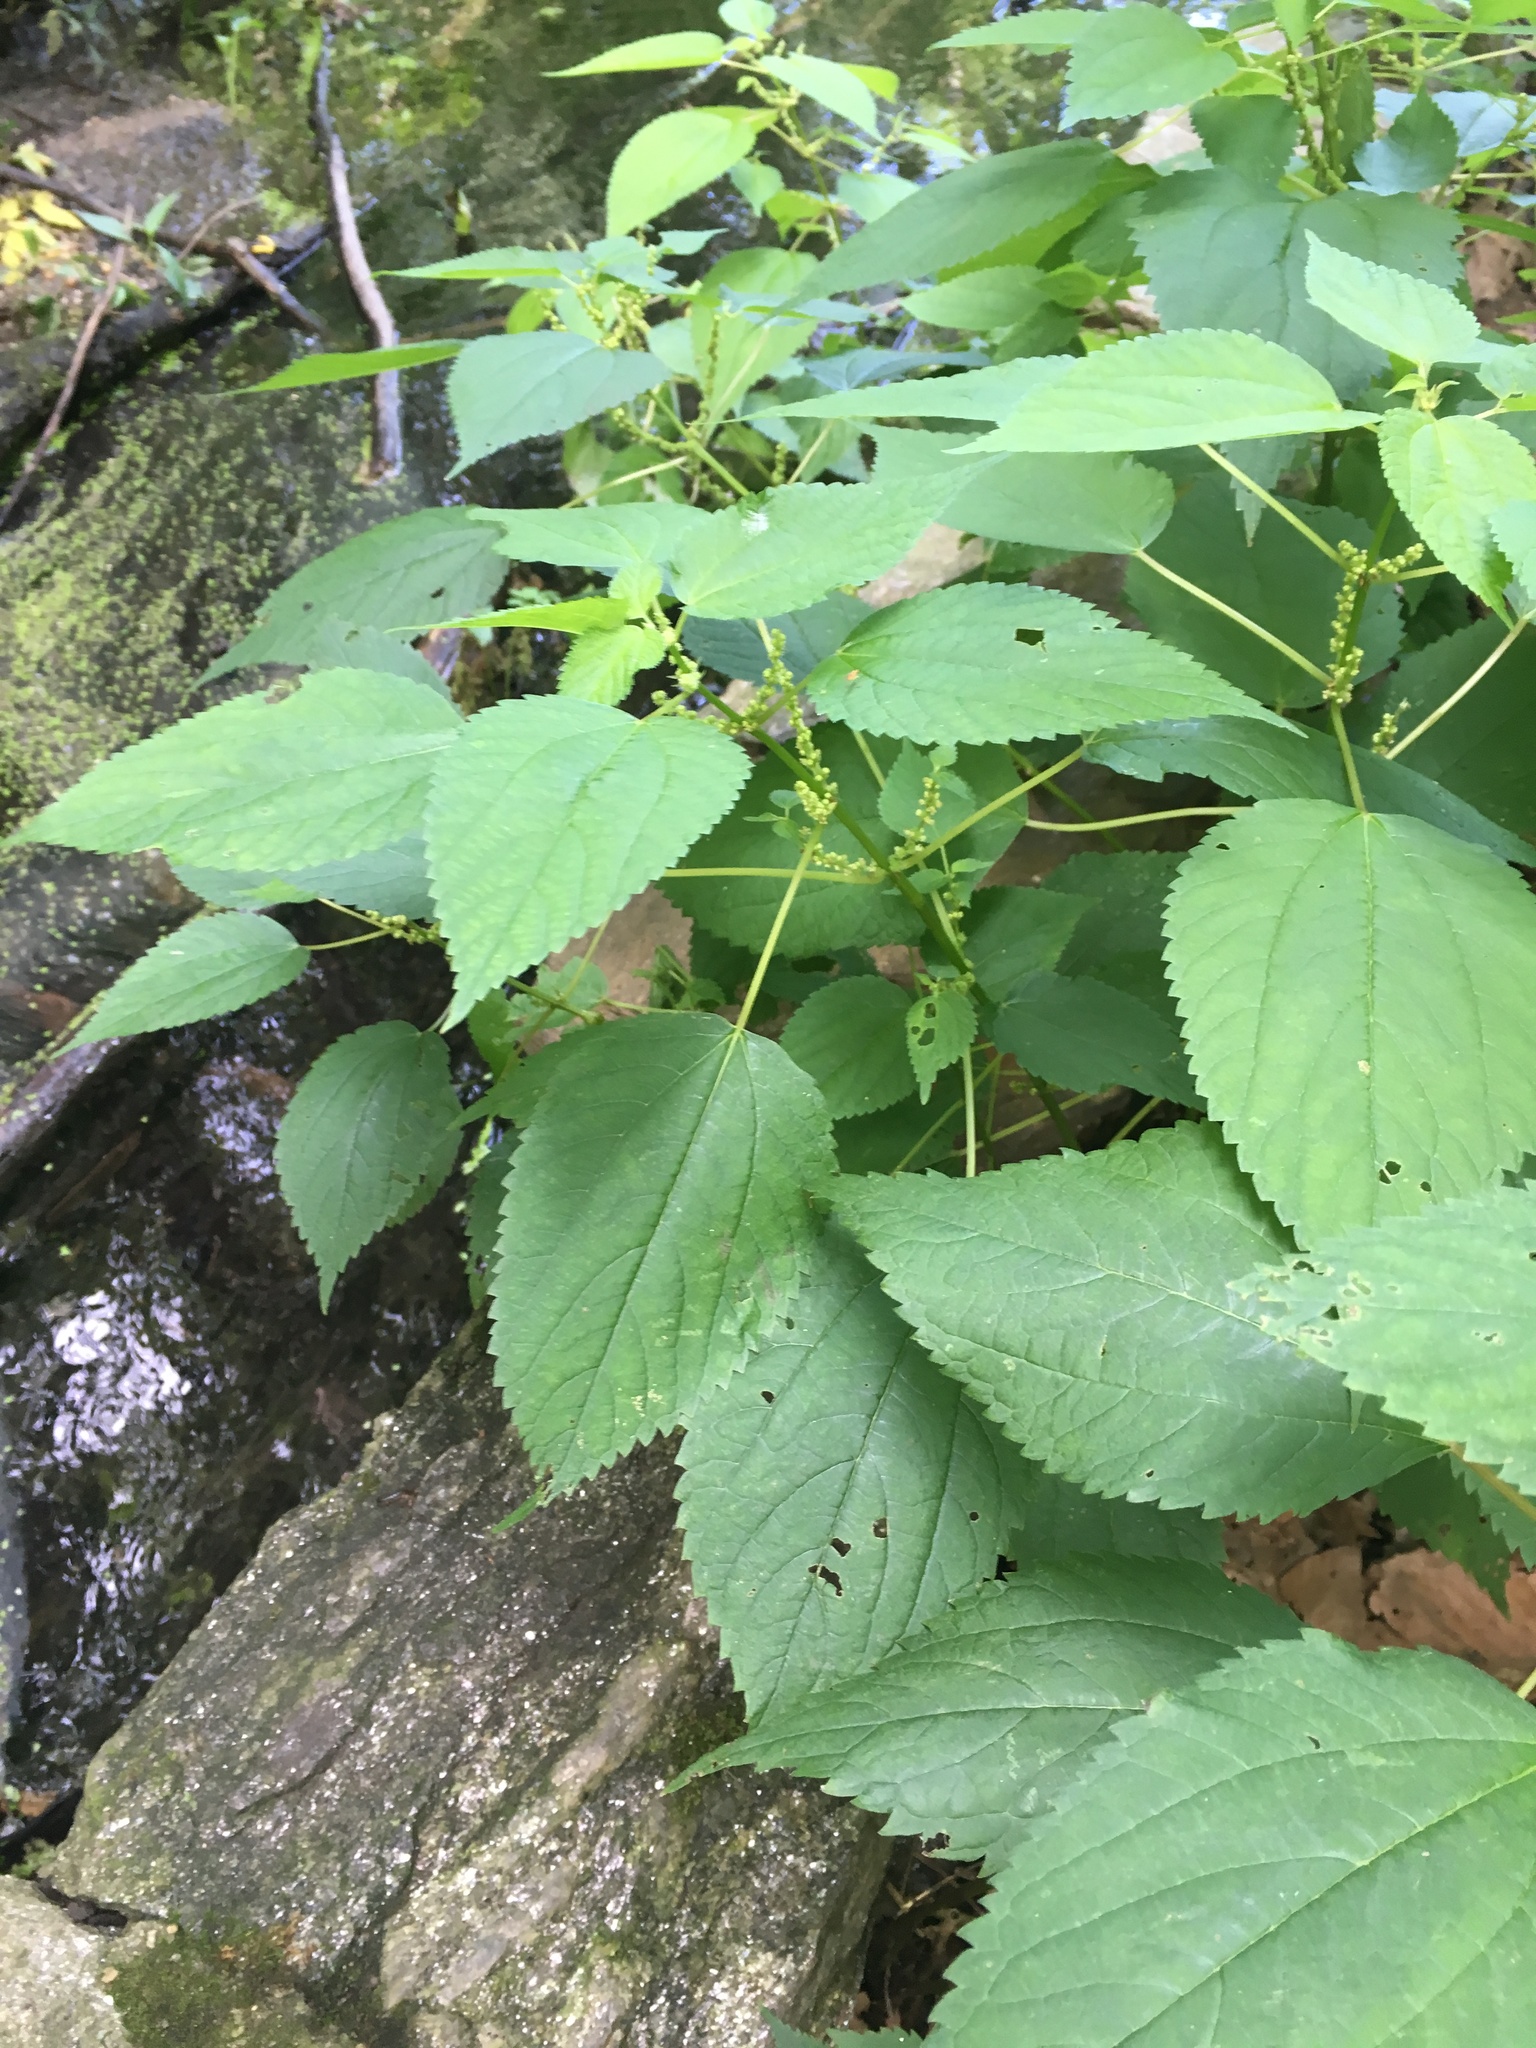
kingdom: Plantae
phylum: Tracheophyta
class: Magnoliopsida
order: Rosales
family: Urticaceae
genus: Boehmeria
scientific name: Boehmeria cylindrica
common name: Bog-hemp
